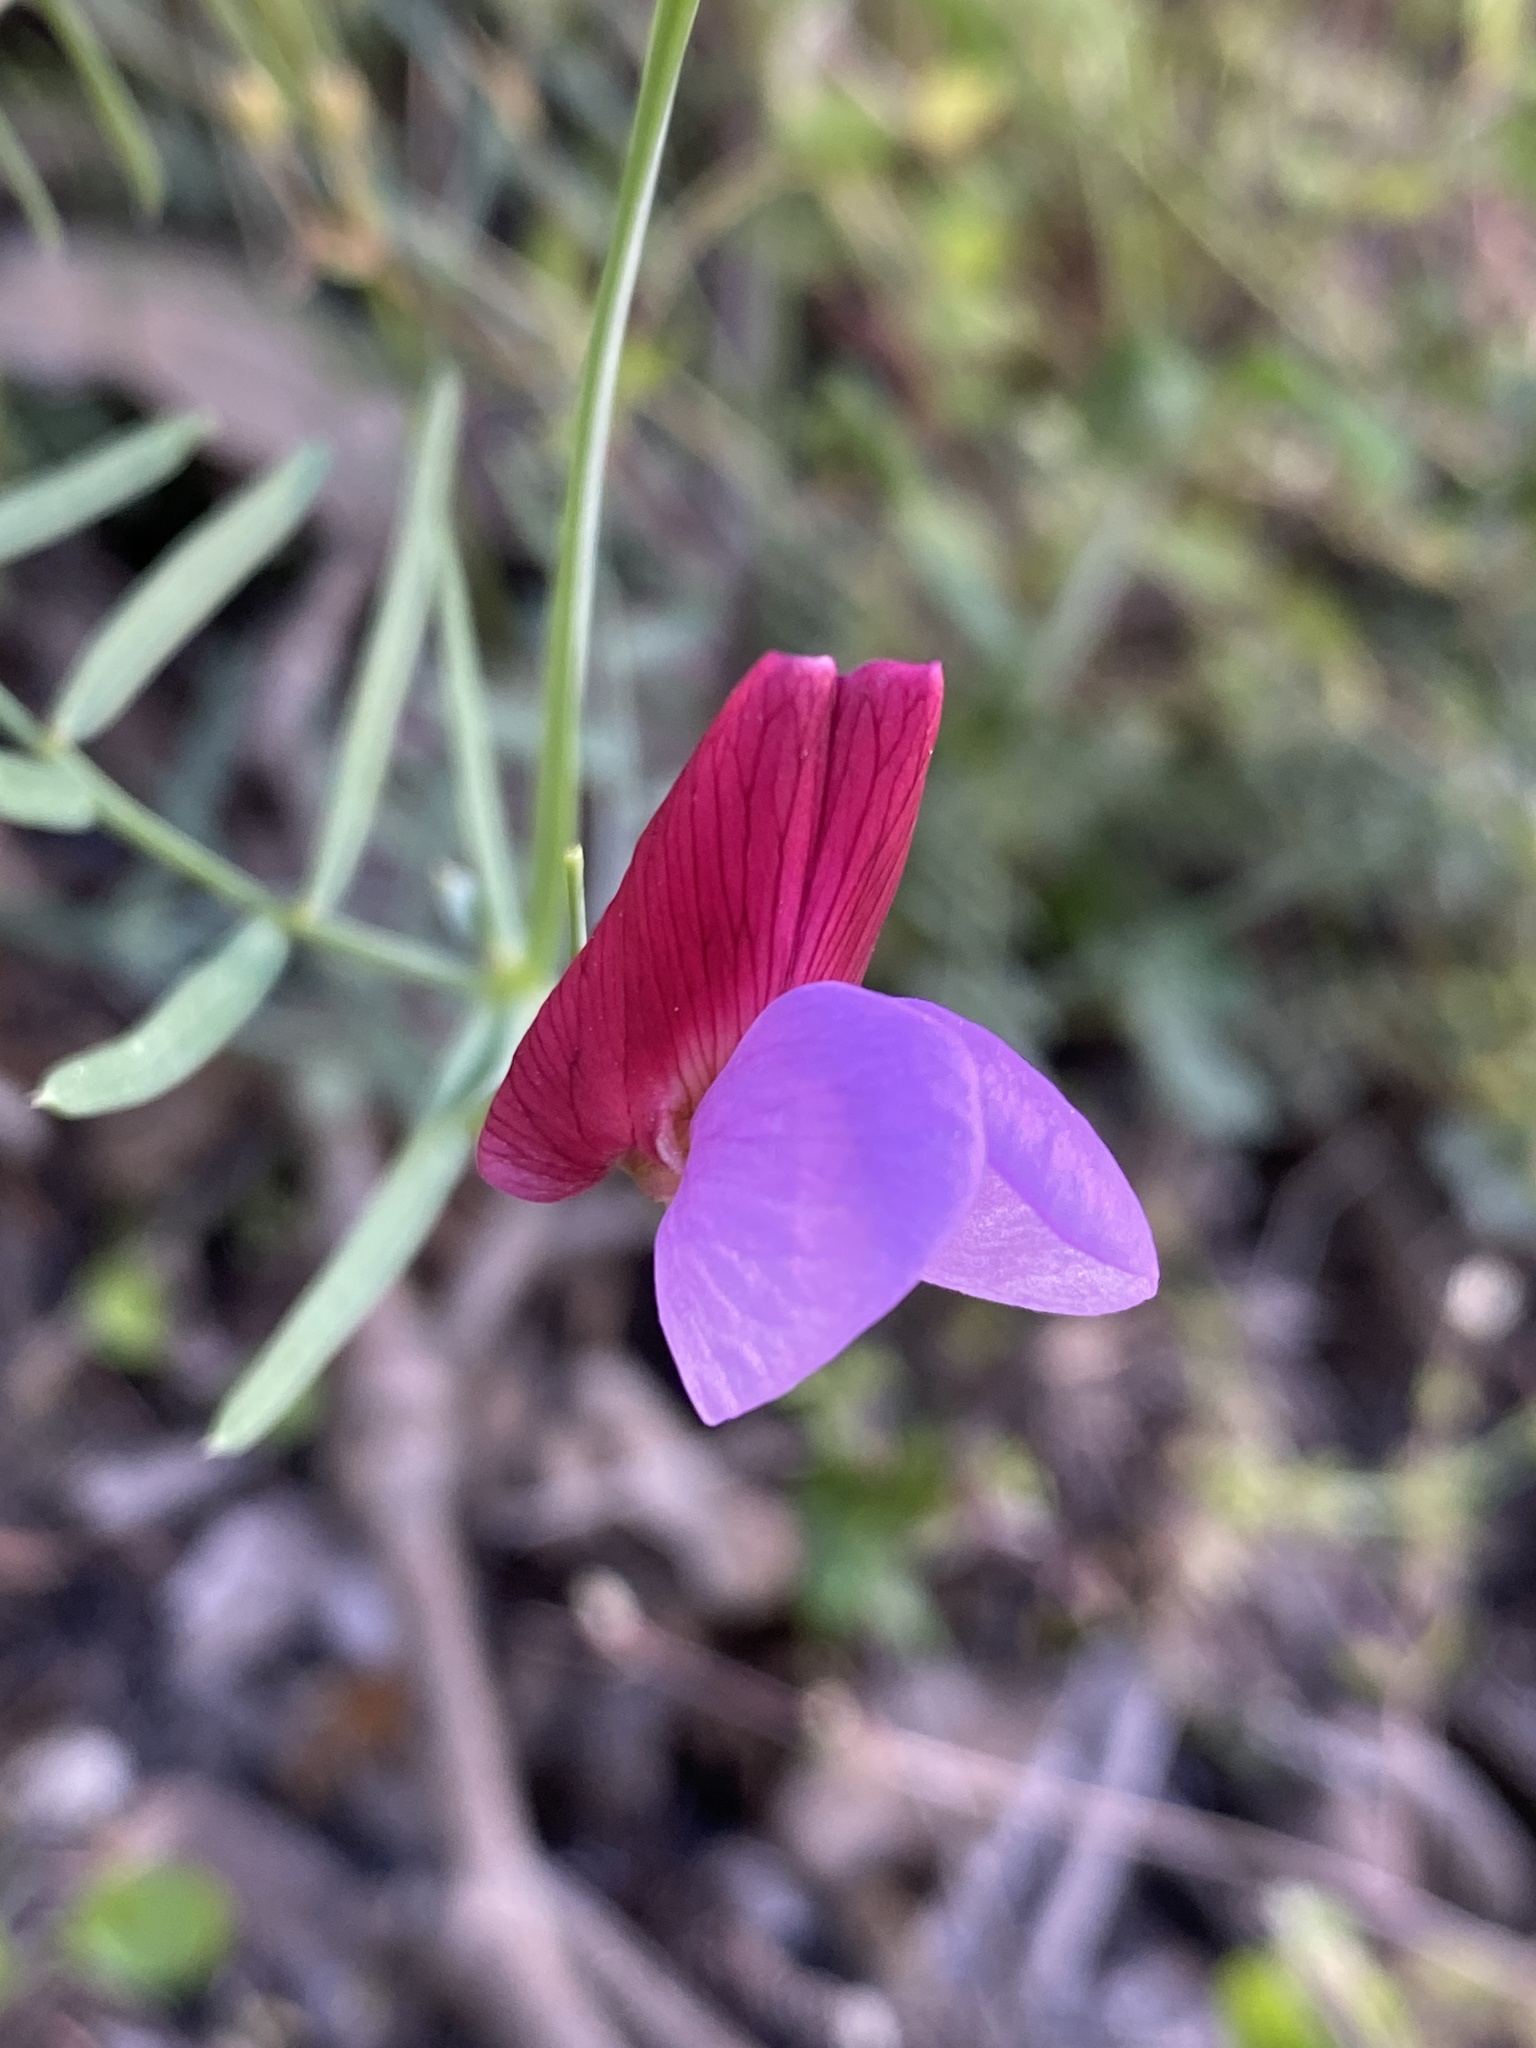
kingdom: Plantae
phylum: Tracheophyta
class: Magnoliopsida
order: Fabales
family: Fabaceae
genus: Lathyrus
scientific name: Lathyrus clymenum
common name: Spanish vetchling
